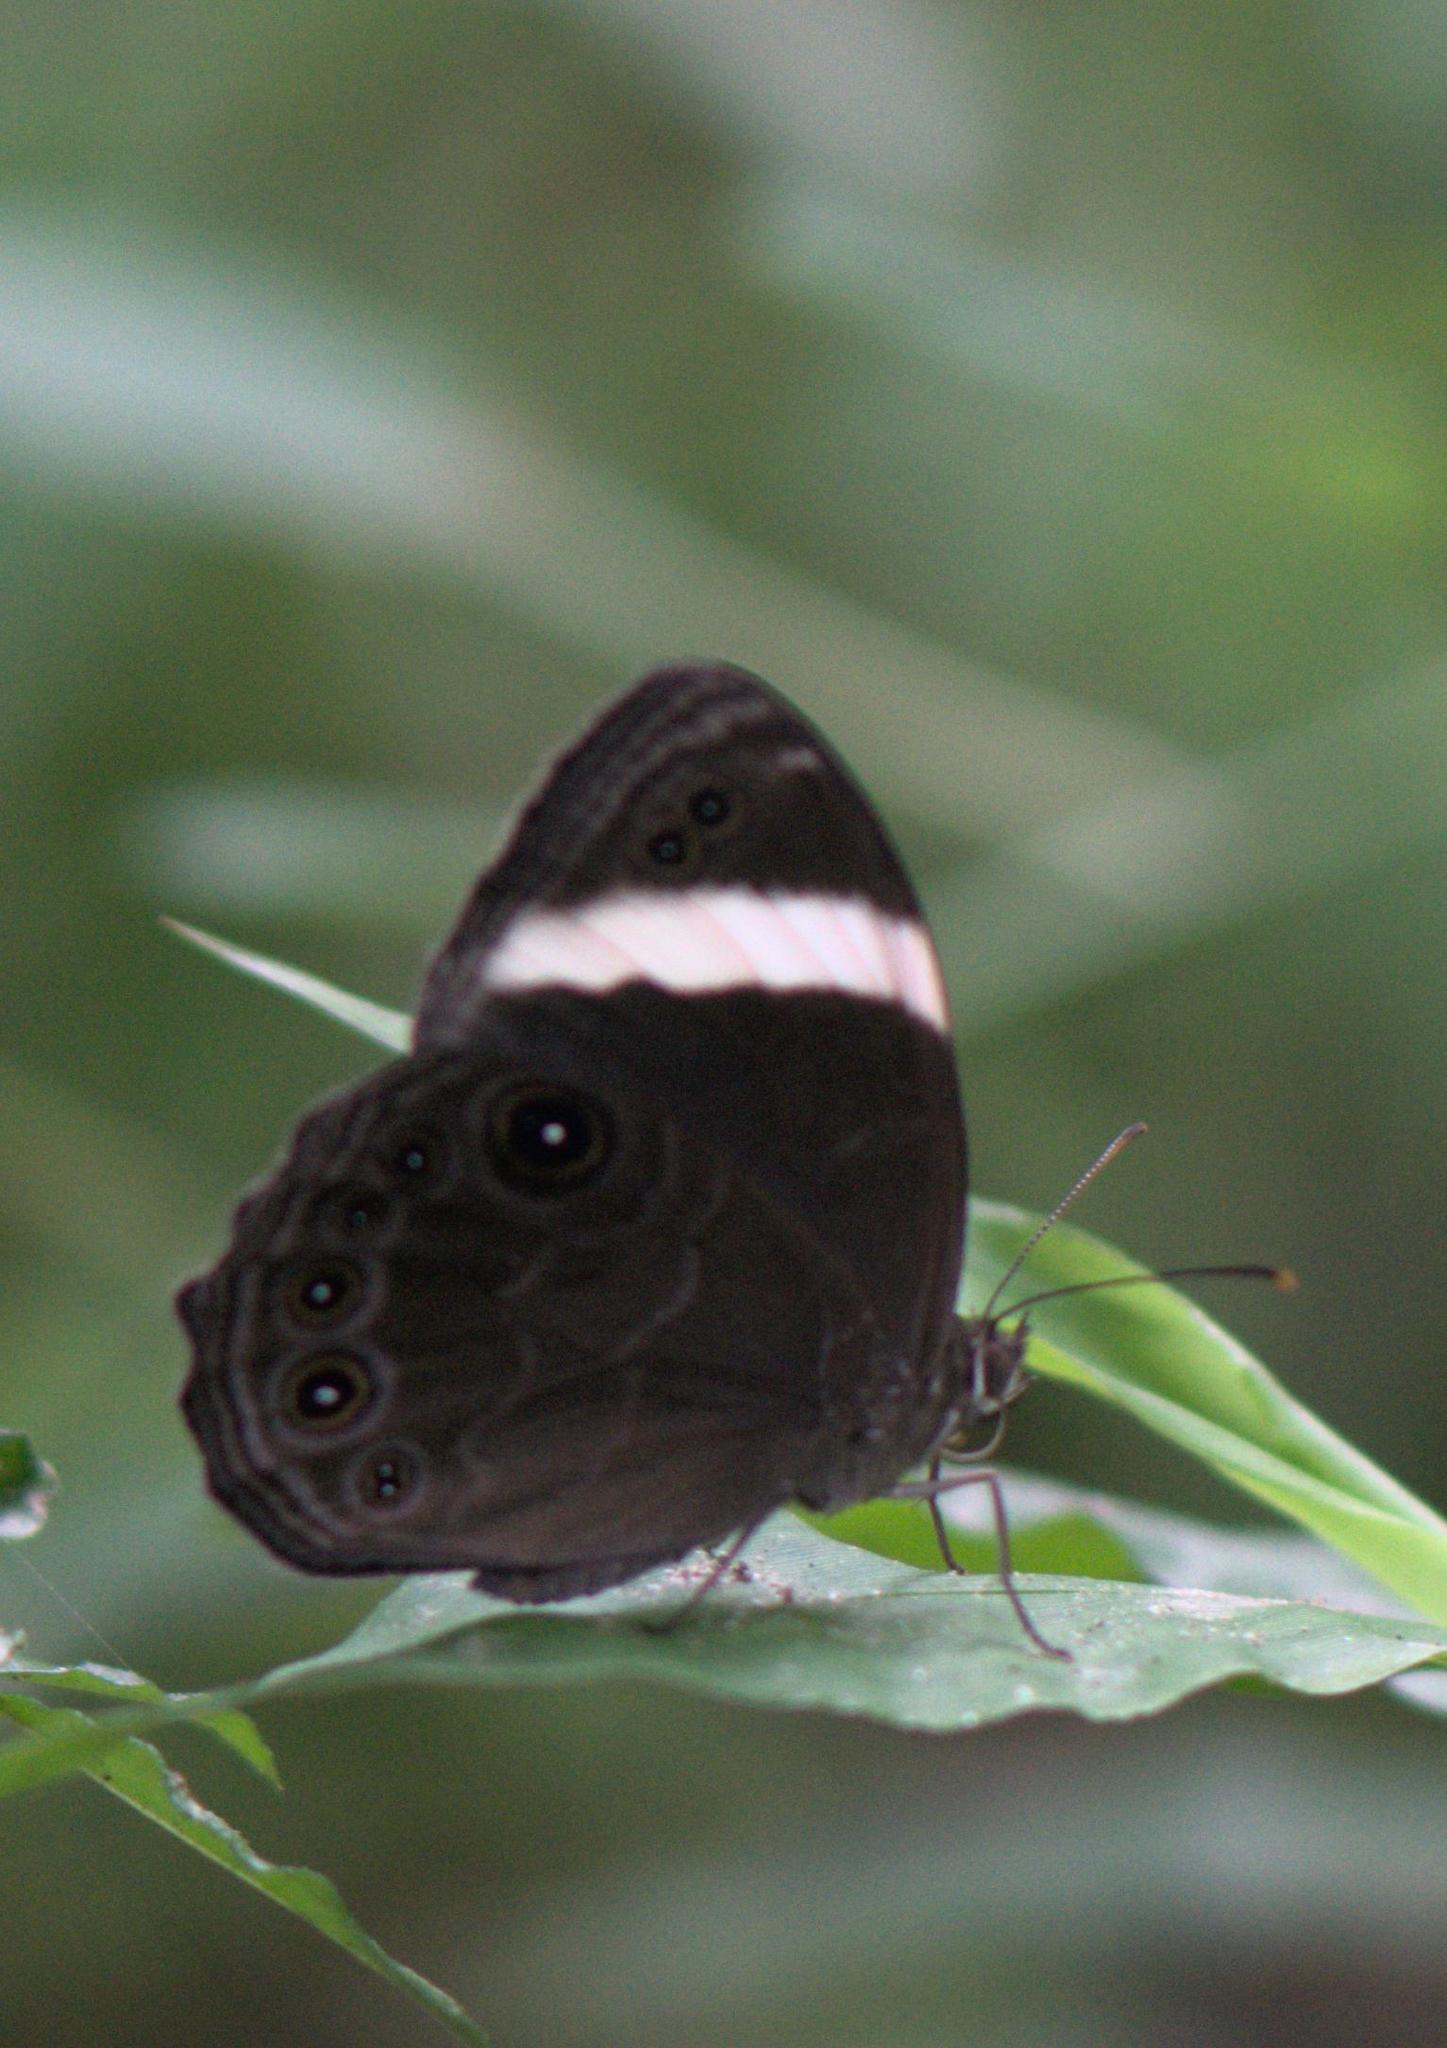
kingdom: Animalia
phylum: Arthropoda
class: Insecta
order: Lepidoptera
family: Nymphalidae
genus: Lethe
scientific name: Lethe verma
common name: Straight-banded treebrown
